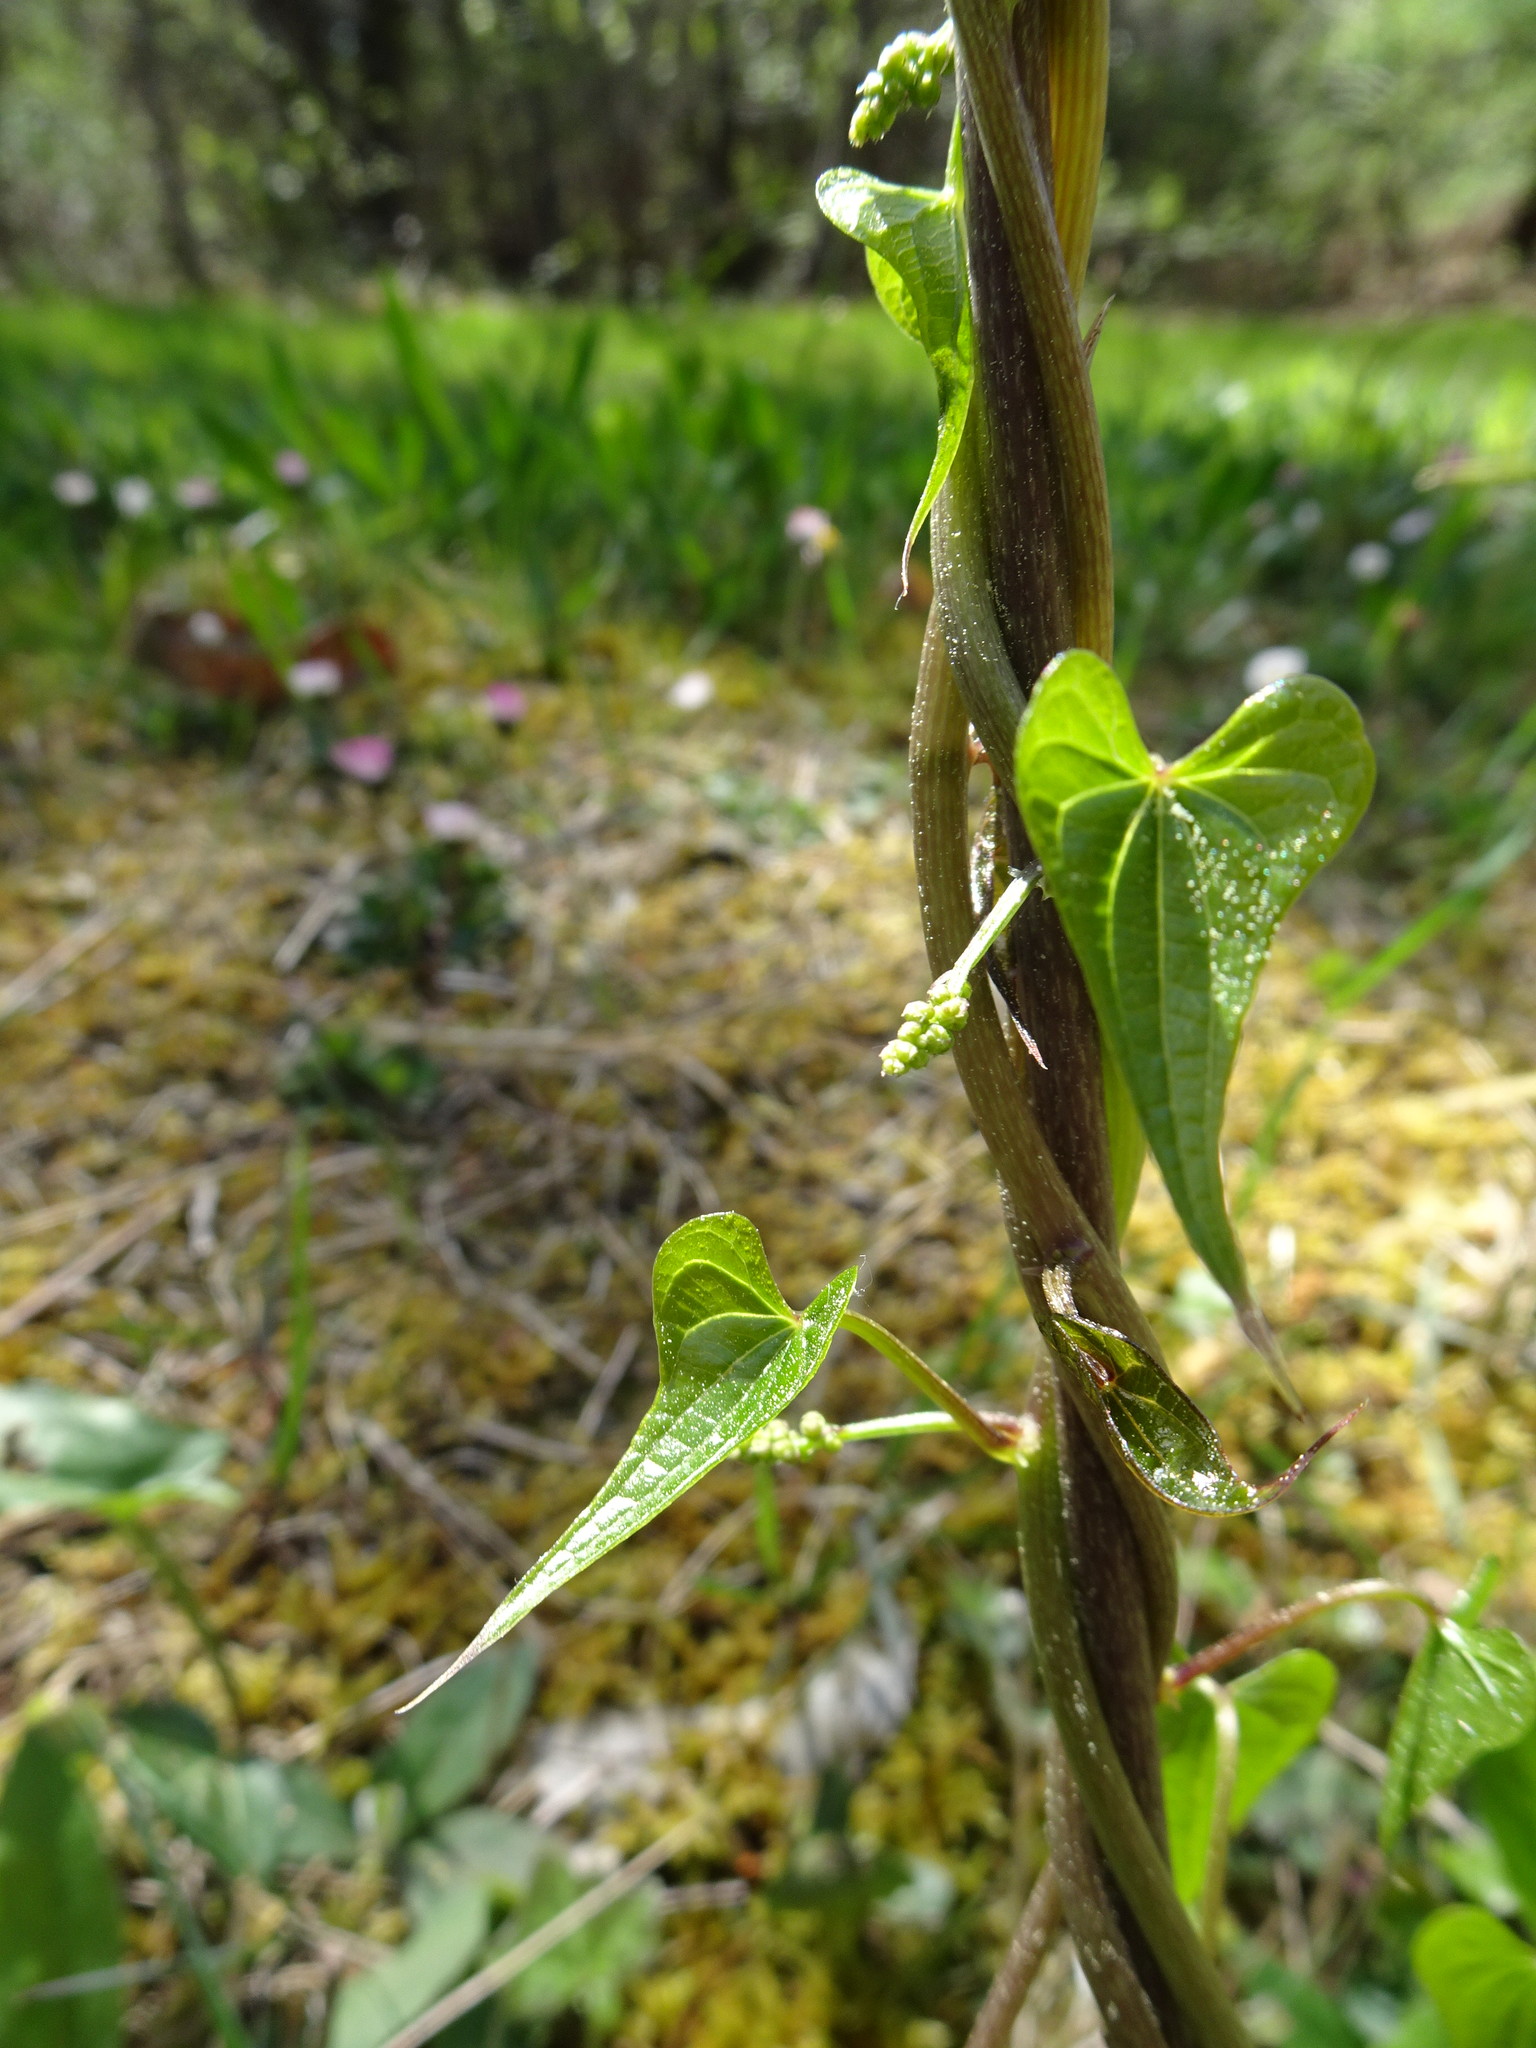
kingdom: Plantae
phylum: Tracheophyta
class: Liliopsida
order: Dioscoreales
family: Dioscoreaceae
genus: Dioscorea
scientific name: Dioscorea communis
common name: Black-bindweed
